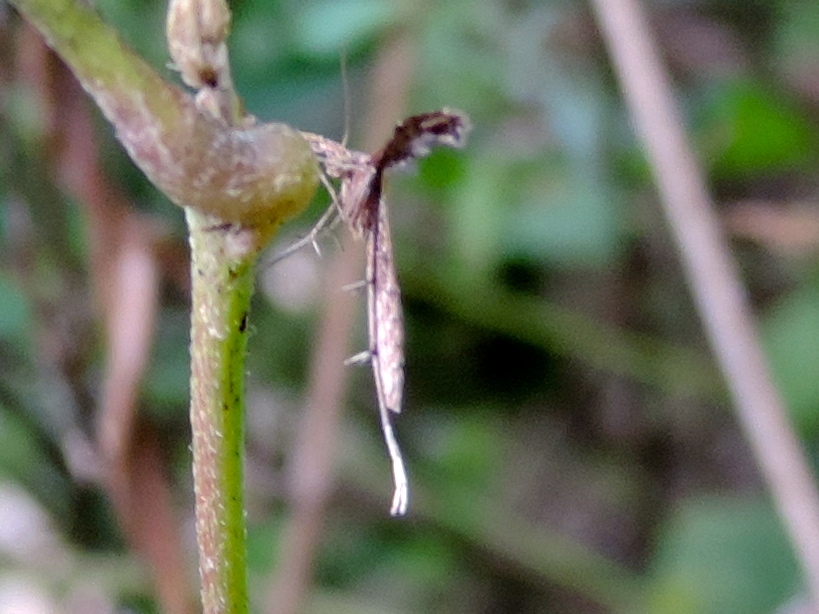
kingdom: Animalia
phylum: Arthropoda
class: Insecta
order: Lepidoptera
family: Pterophoridae
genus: Anstenoptilia
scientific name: Anstenoptilia marmarodactyla
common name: Moth
